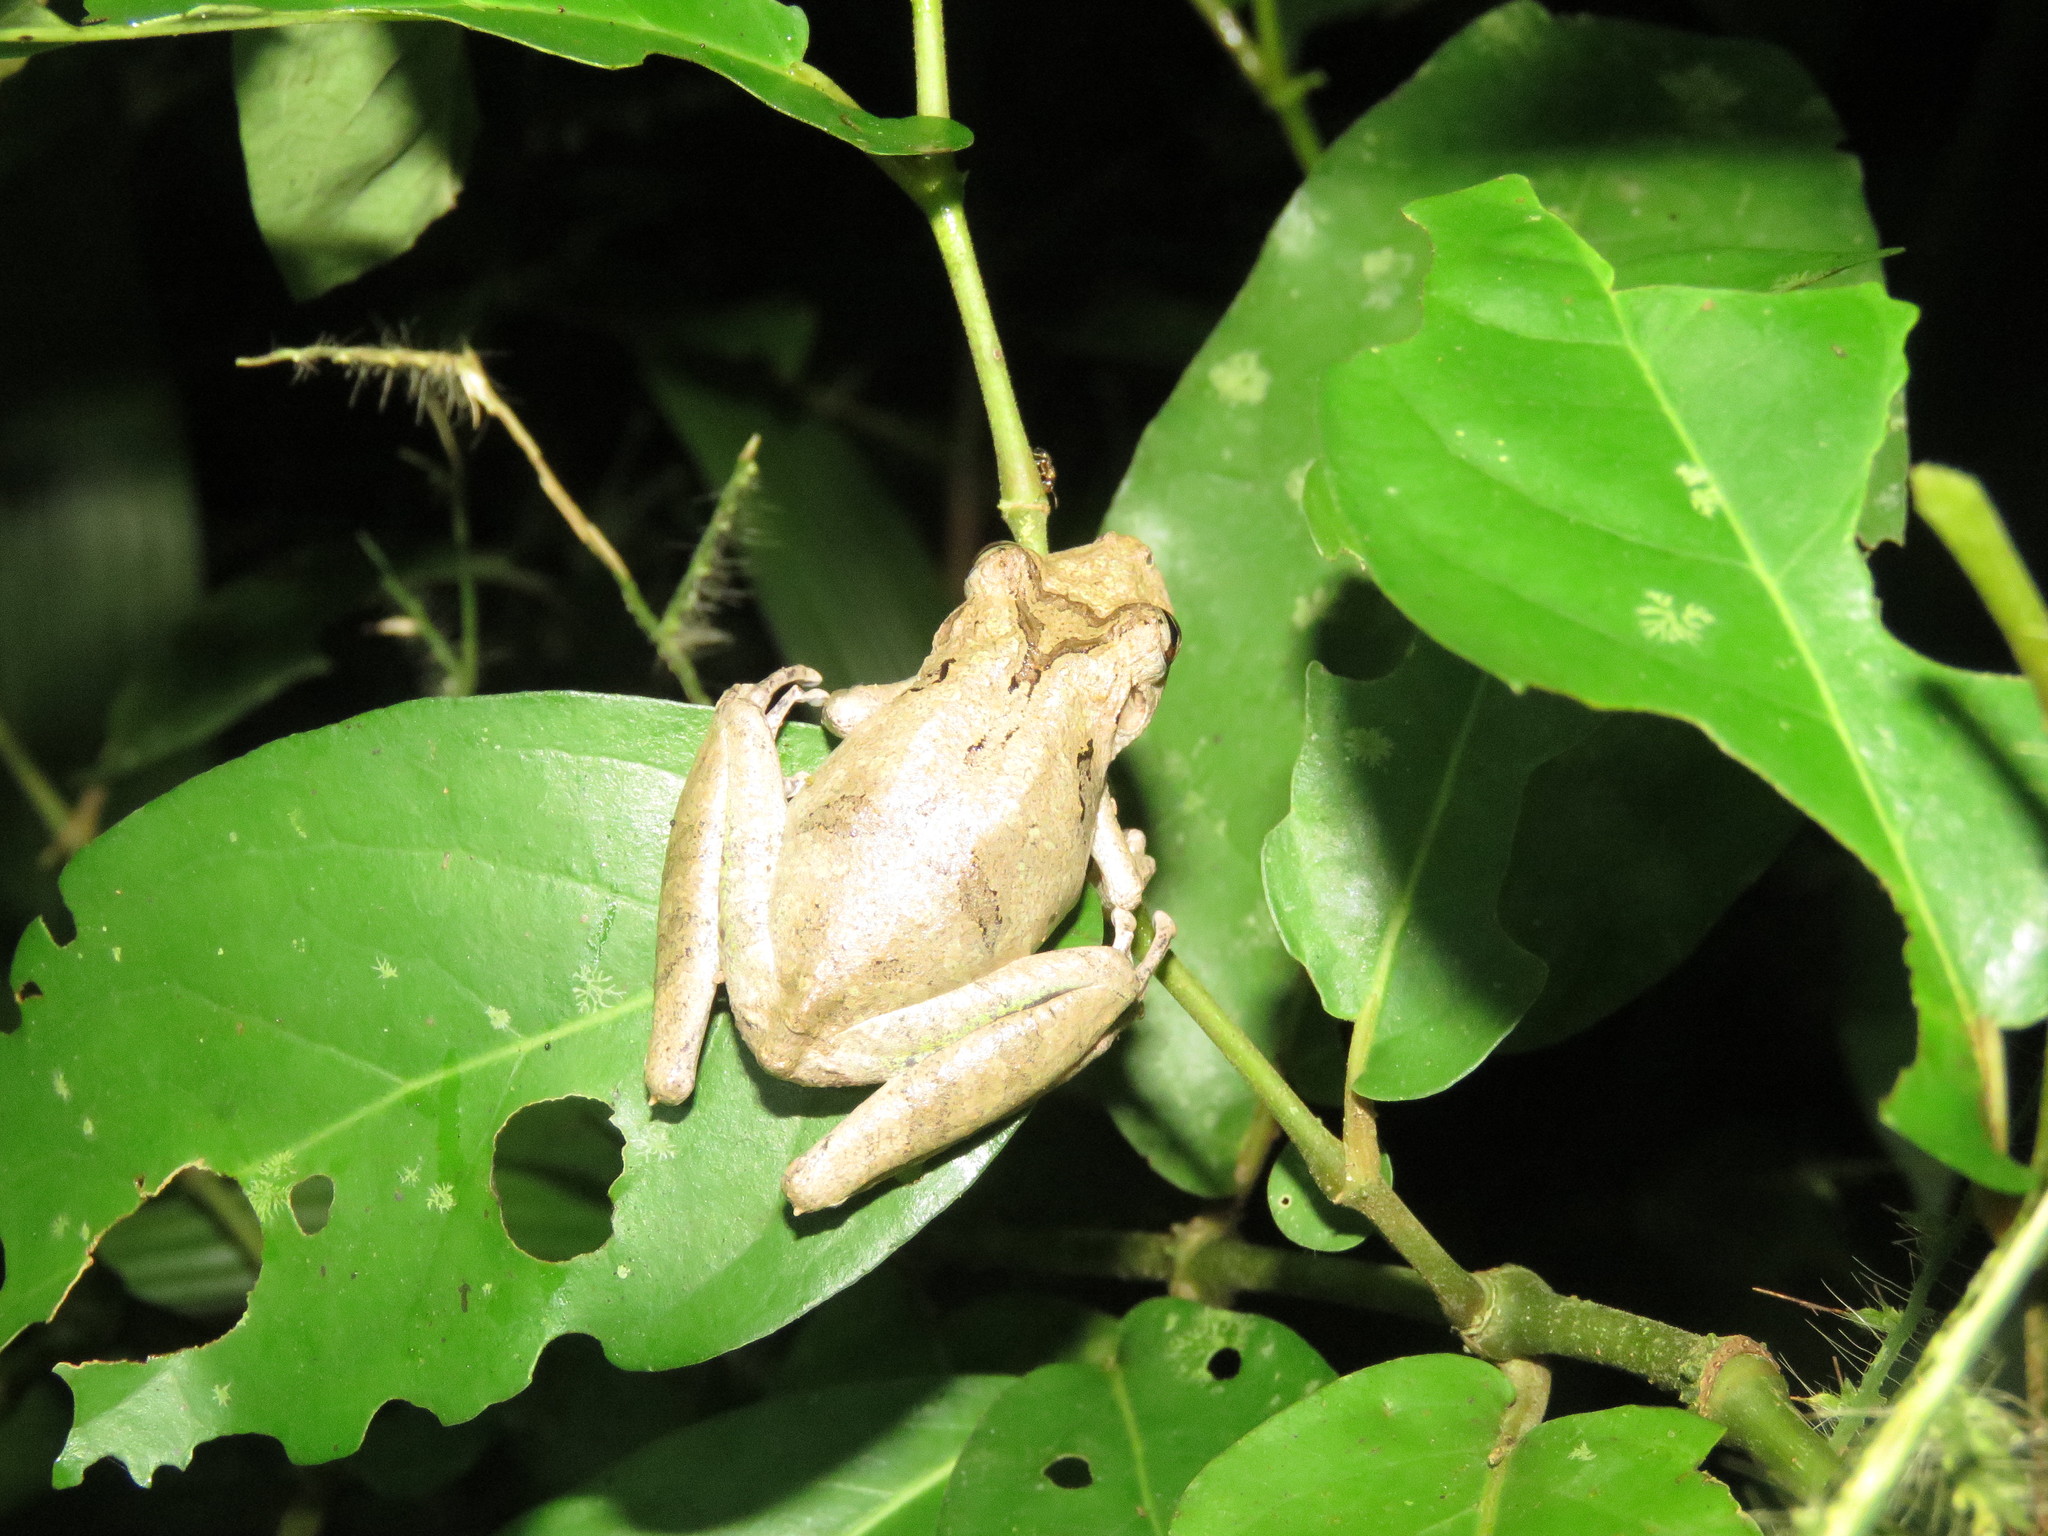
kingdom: Animalia
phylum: Chordata
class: Amphibia
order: Anura
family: Hylidae
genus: Scinax
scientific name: Scinax nebulosus
